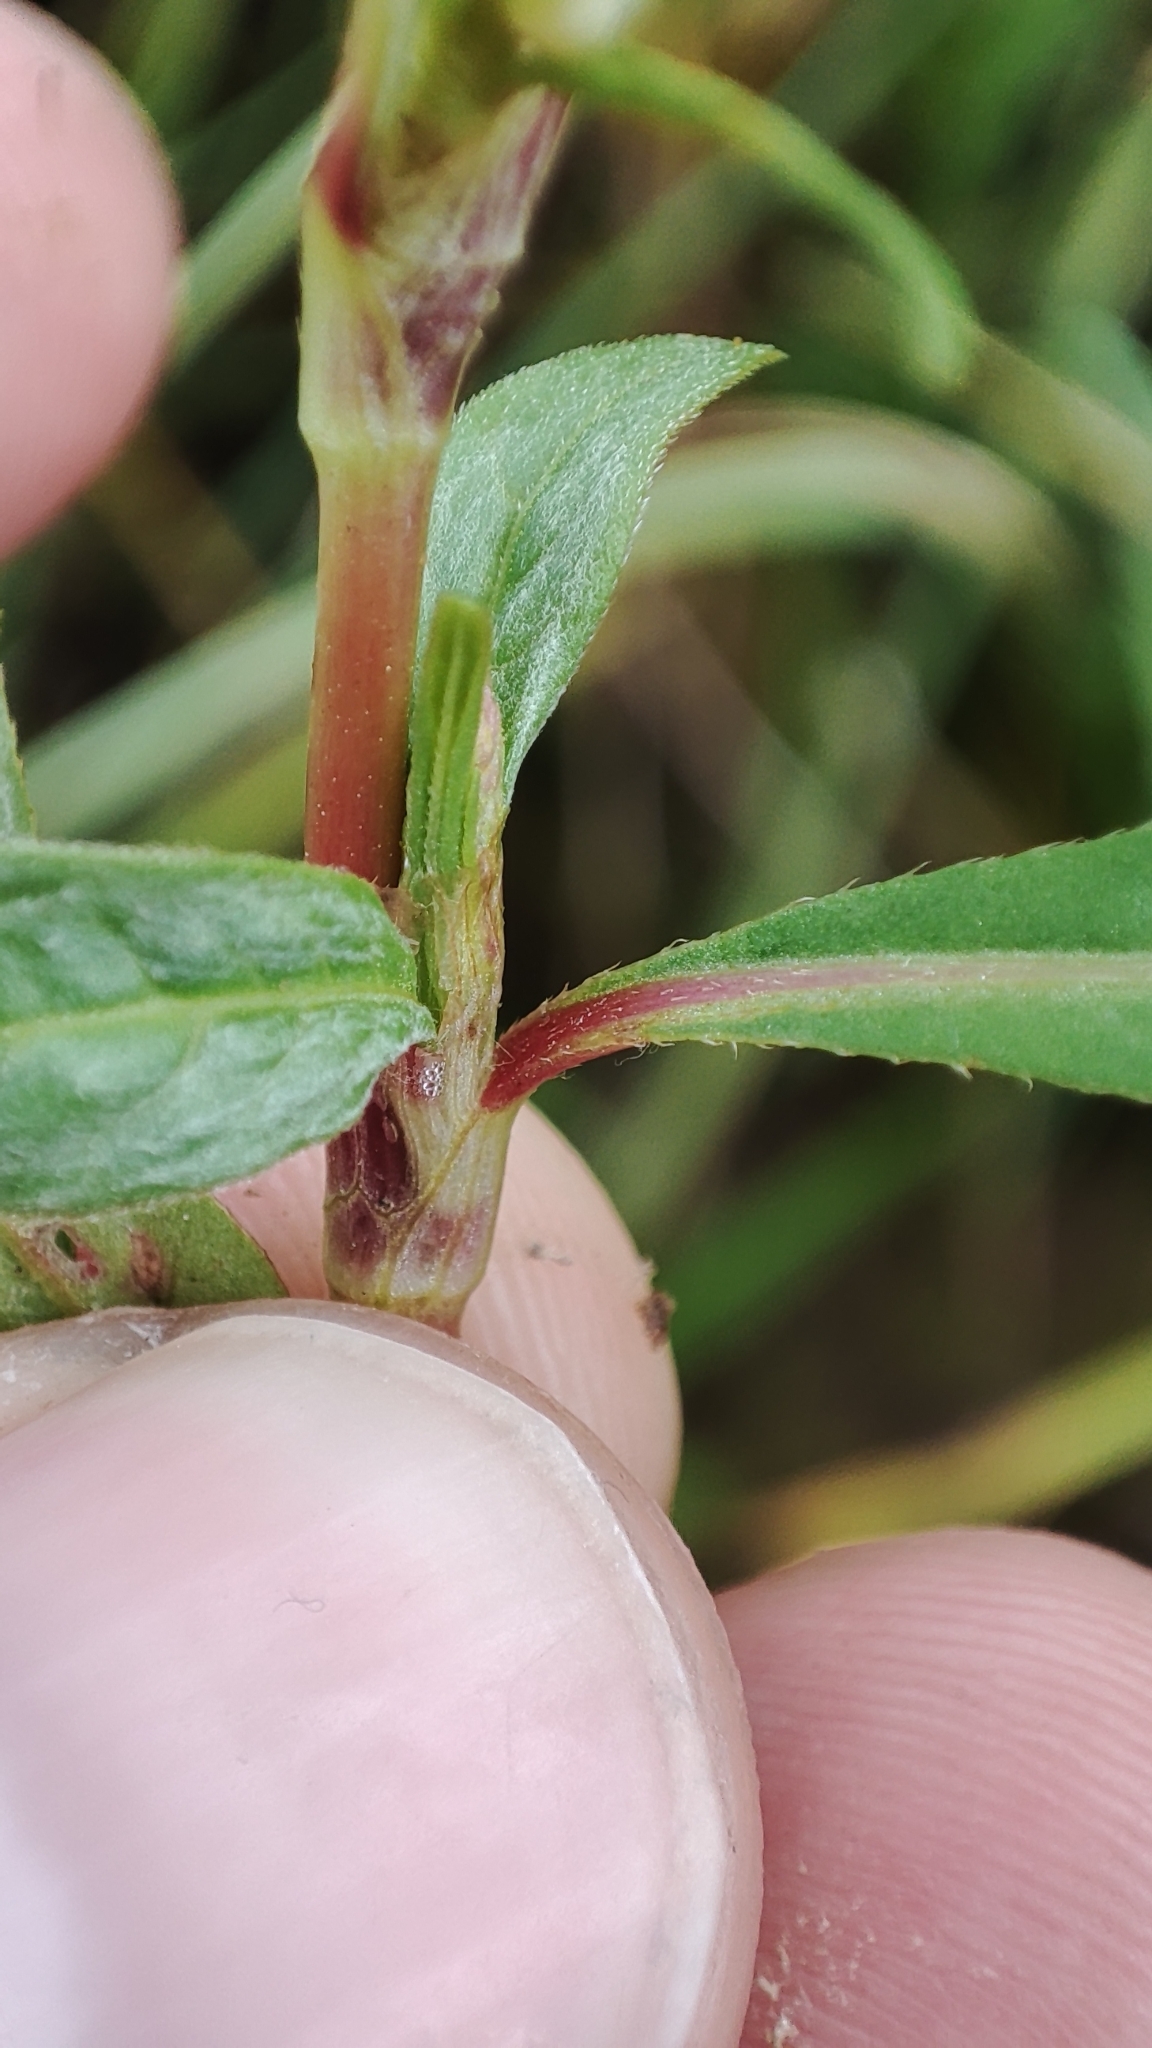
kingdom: Plantae
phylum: Tracheophyta
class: Magnoliopsida
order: Caryophyllales
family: Polygonaceae
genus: Persicaria
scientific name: Persicaria lapathifolia
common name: Curlytop knotweed
